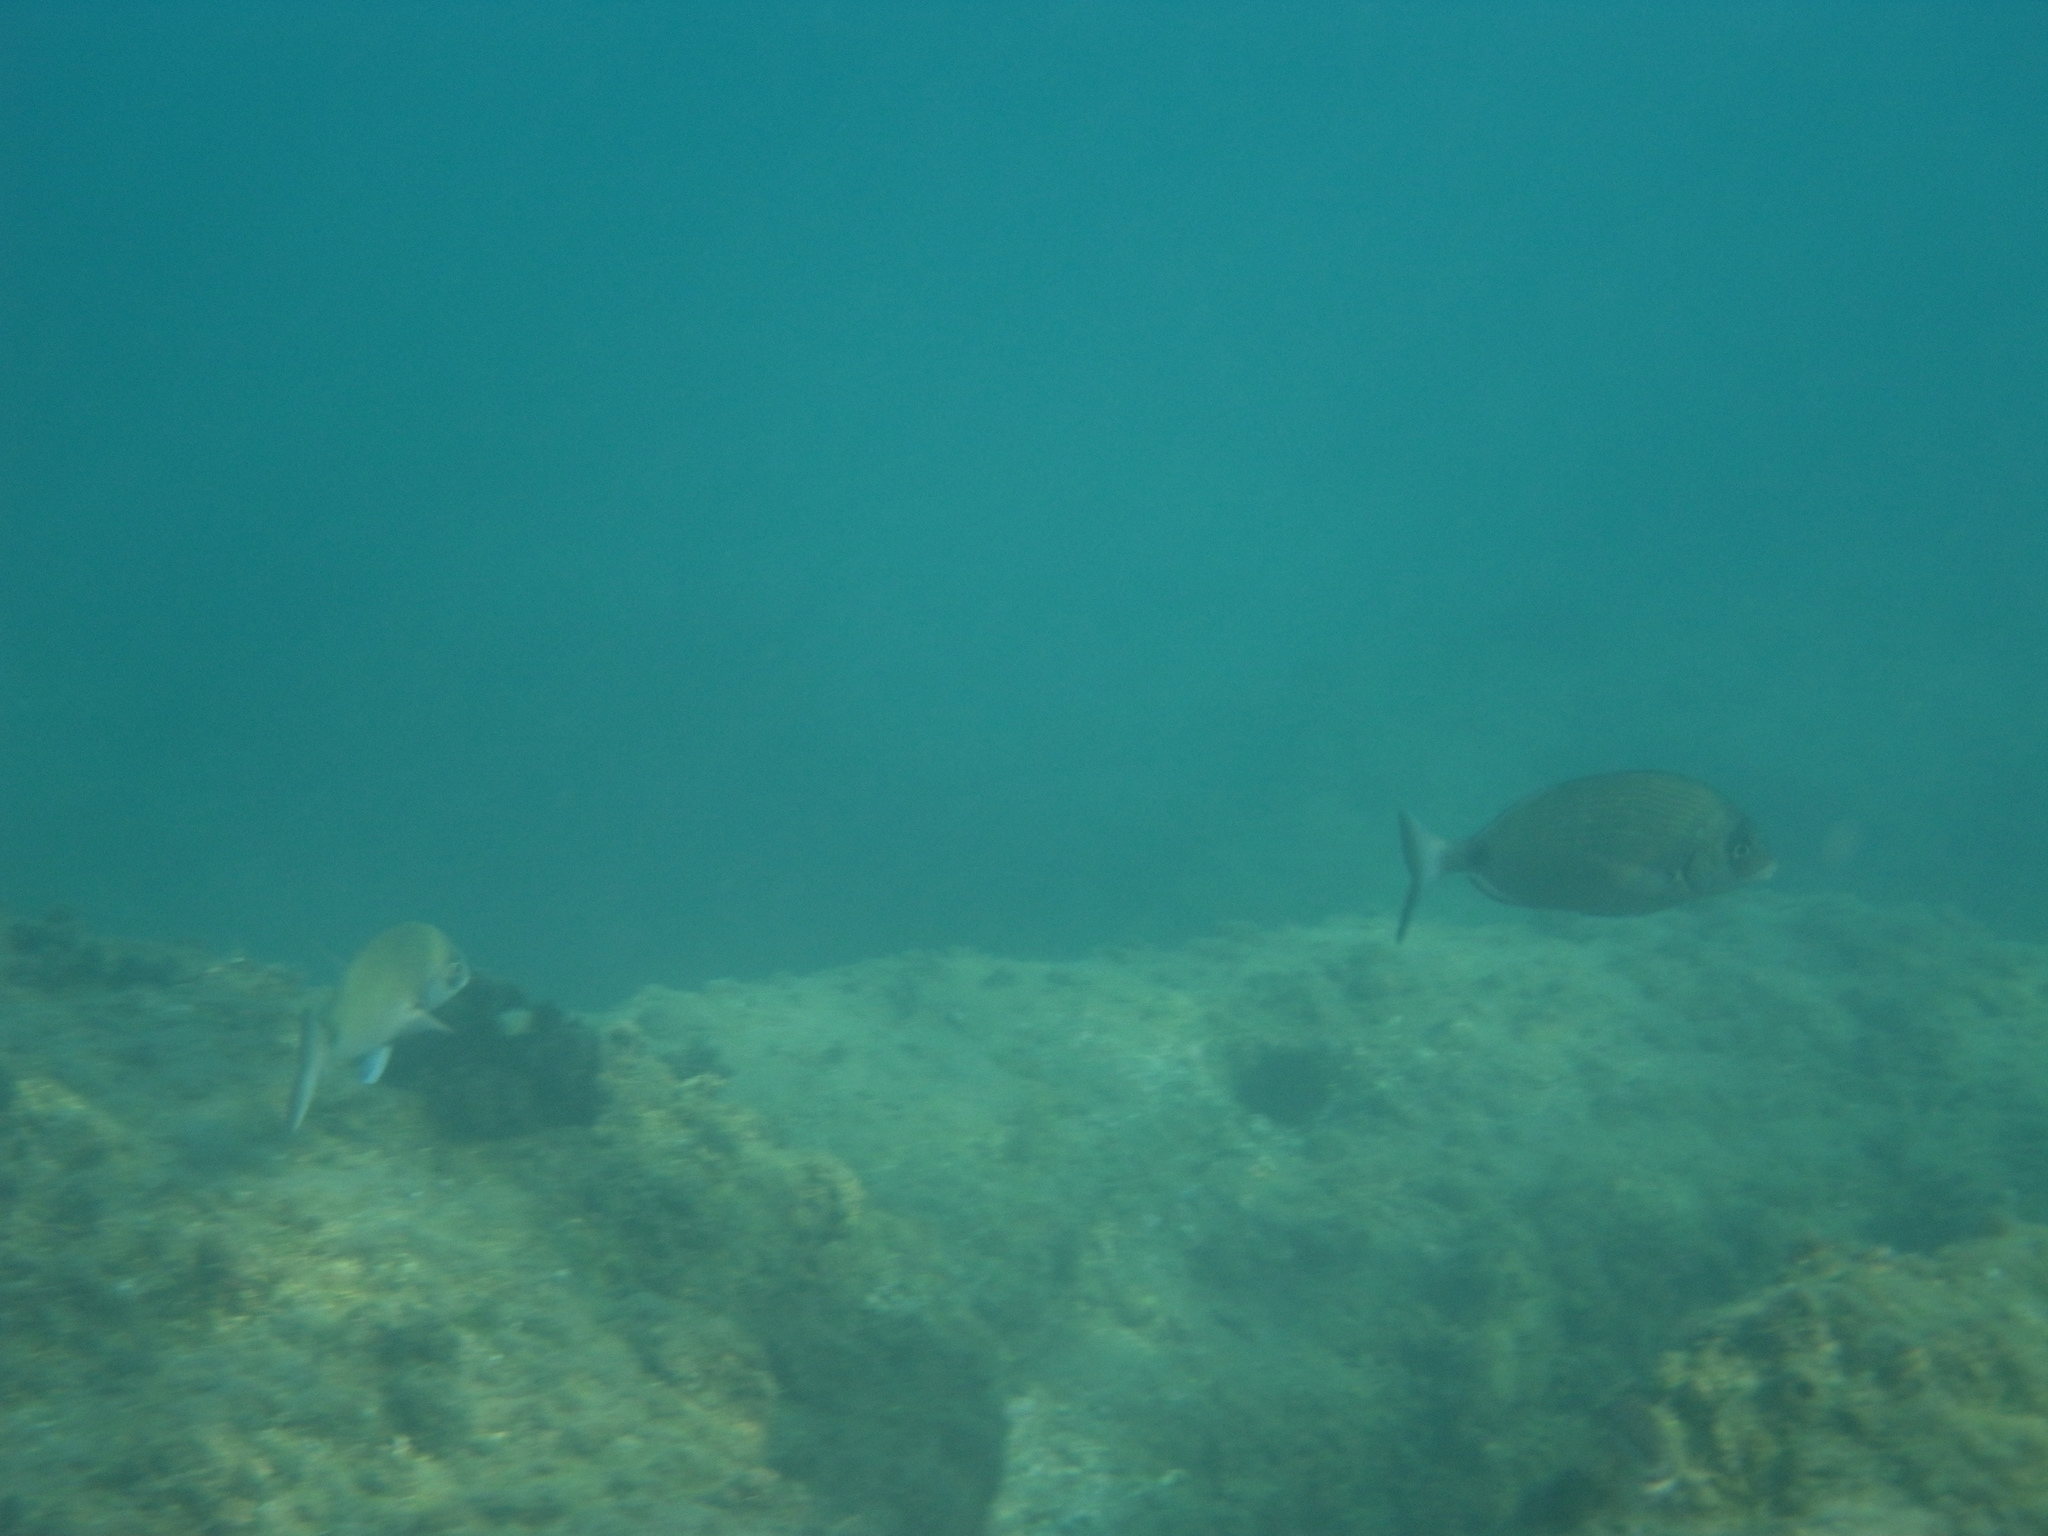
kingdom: Animalia
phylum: Chordata
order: Perciformes
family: Sparidae
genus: Diplodus
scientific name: Diplodus sargus
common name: White seabream
